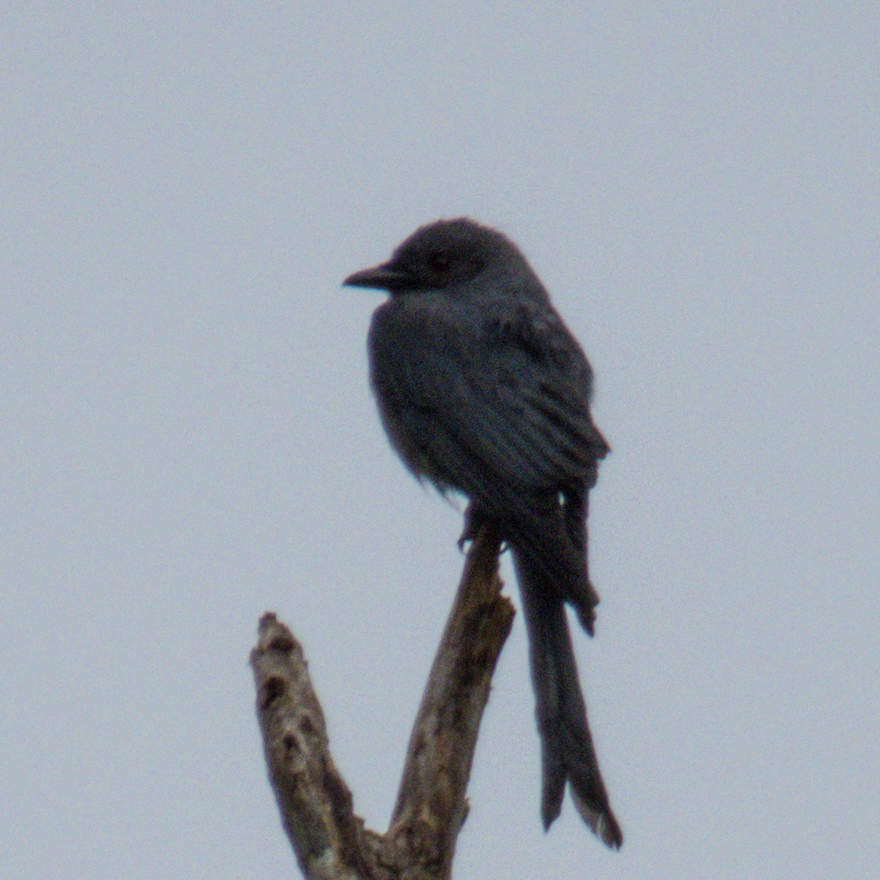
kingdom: Animalia
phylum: Chordata
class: Aves
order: Passeriformes
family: Dicruridae
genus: Dicrurus
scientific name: Dicrurus leucophaeus
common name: Ashy drongo
